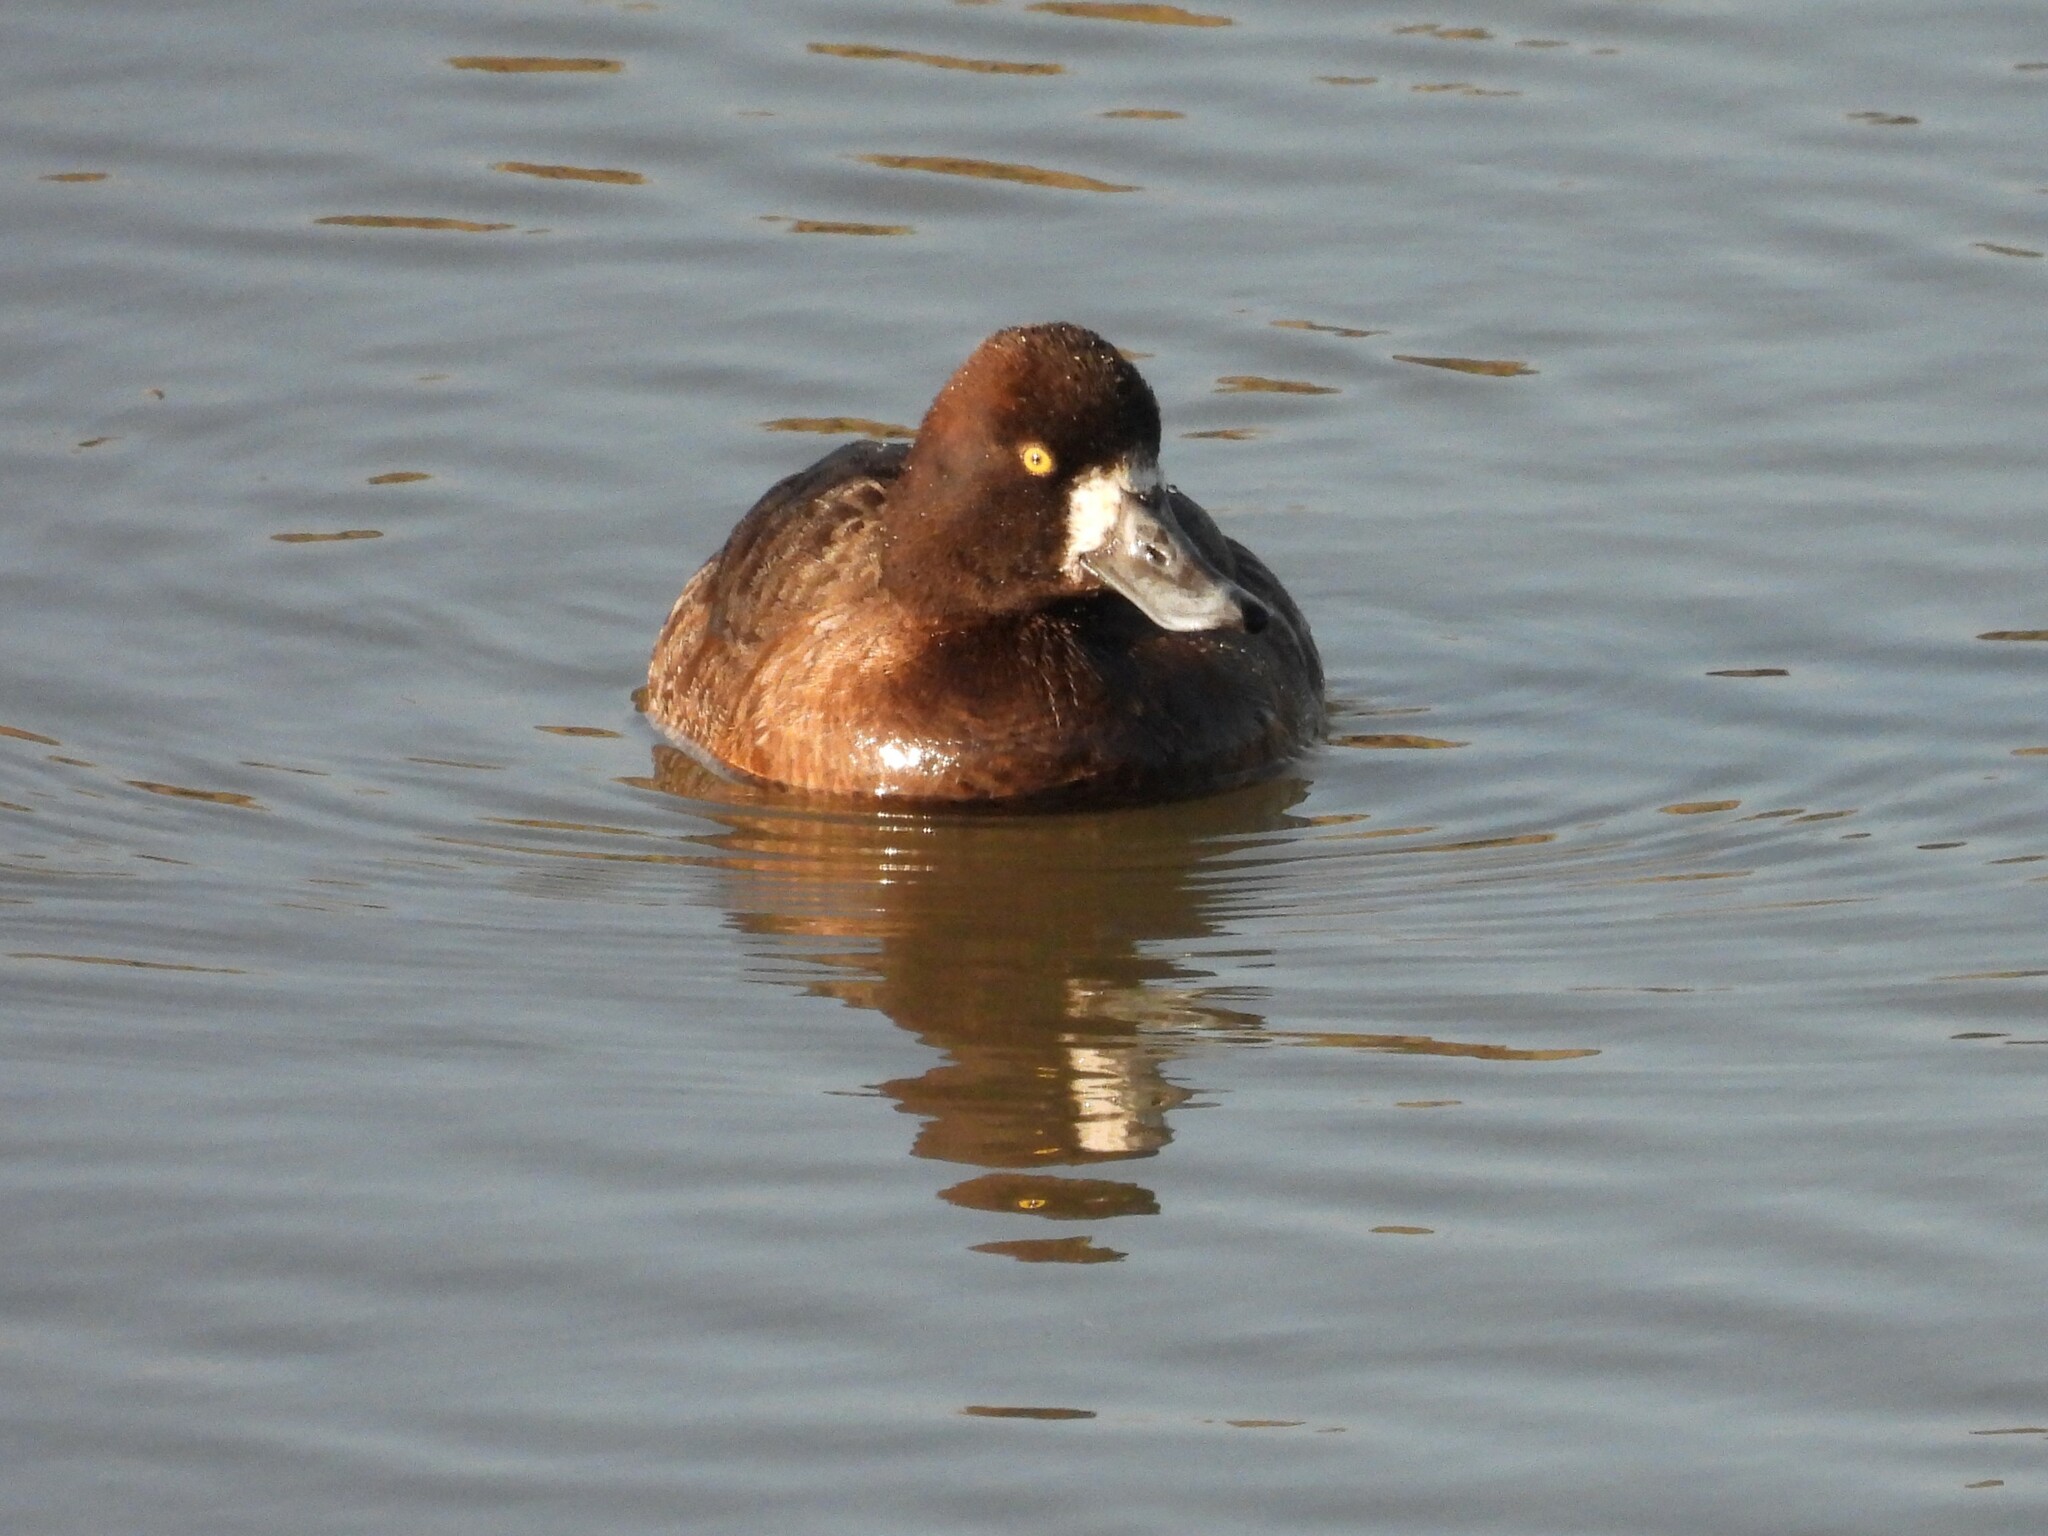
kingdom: Animalia
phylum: Chordata
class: Aves
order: Anseriformes
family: Anatidae
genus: Aythya
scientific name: Aythya affinis
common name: Lesser scaup
